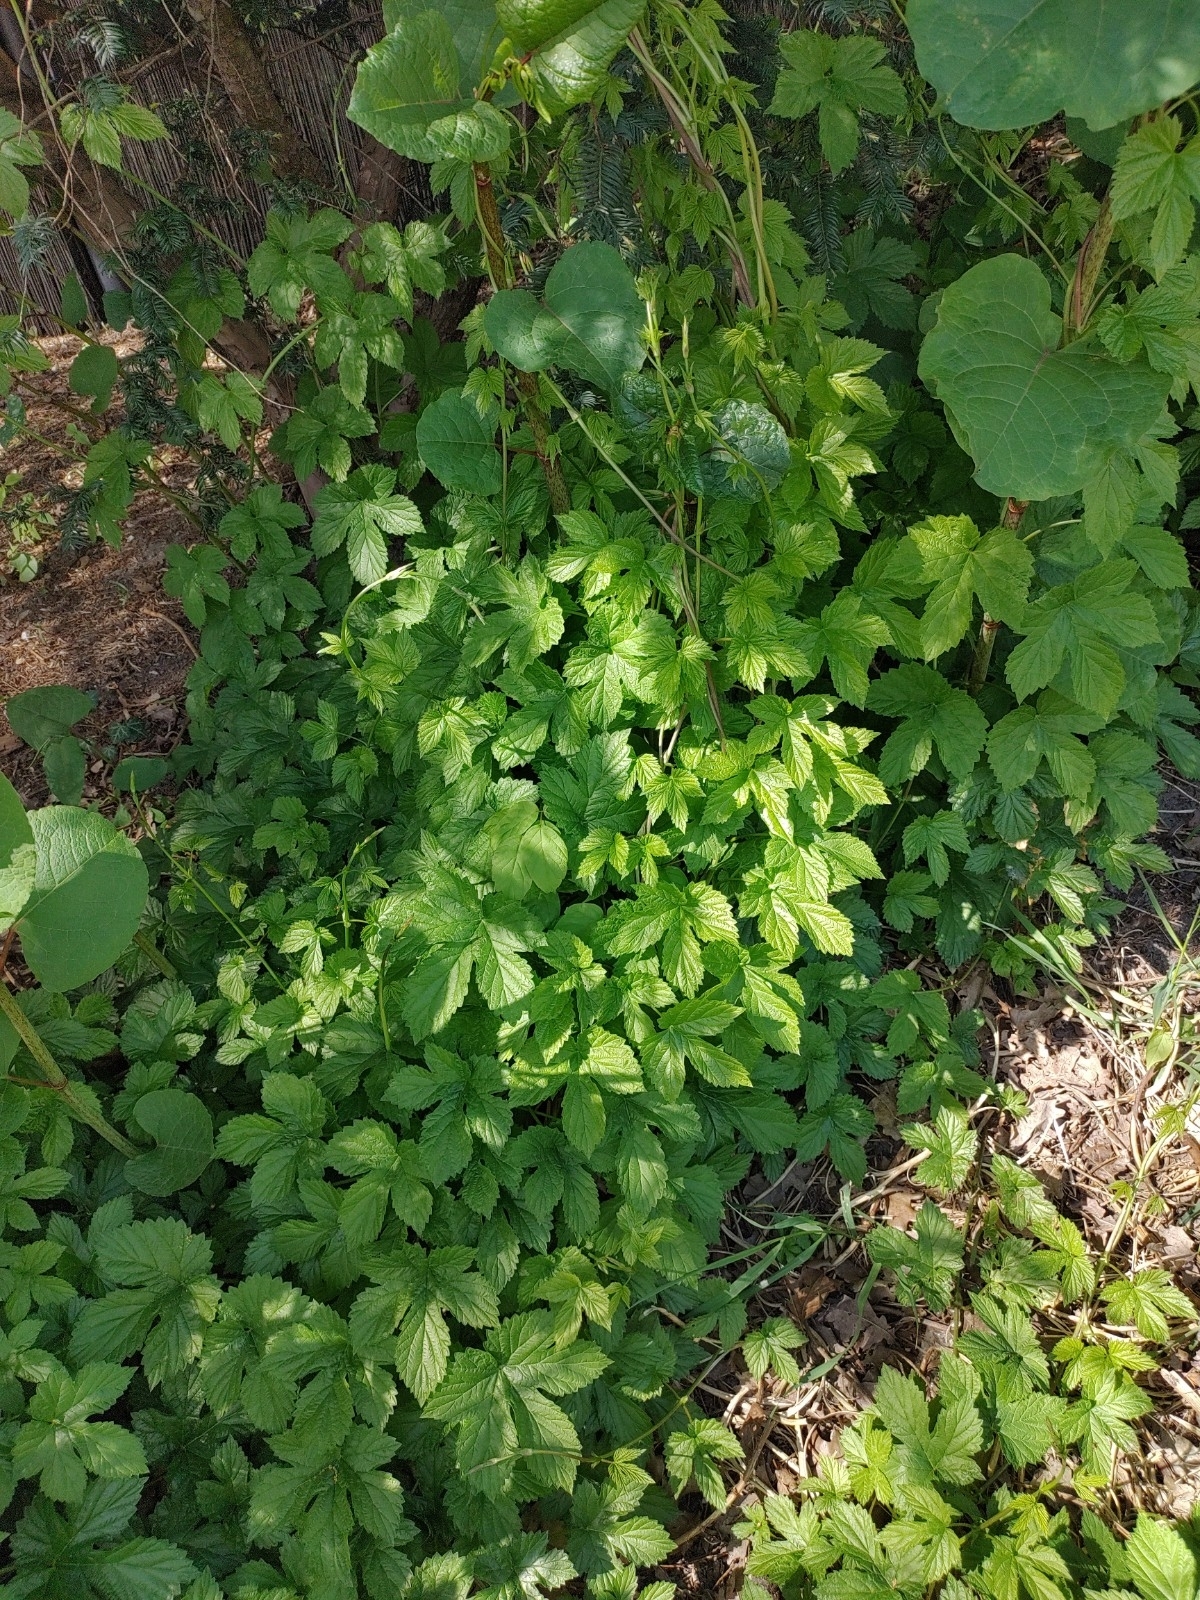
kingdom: Plantae
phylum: Tracheophyta
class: Magnoliopsida
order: Rosales
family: Cannabaceae
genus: Humulus
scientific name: Humulus lupulus
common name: Hop
